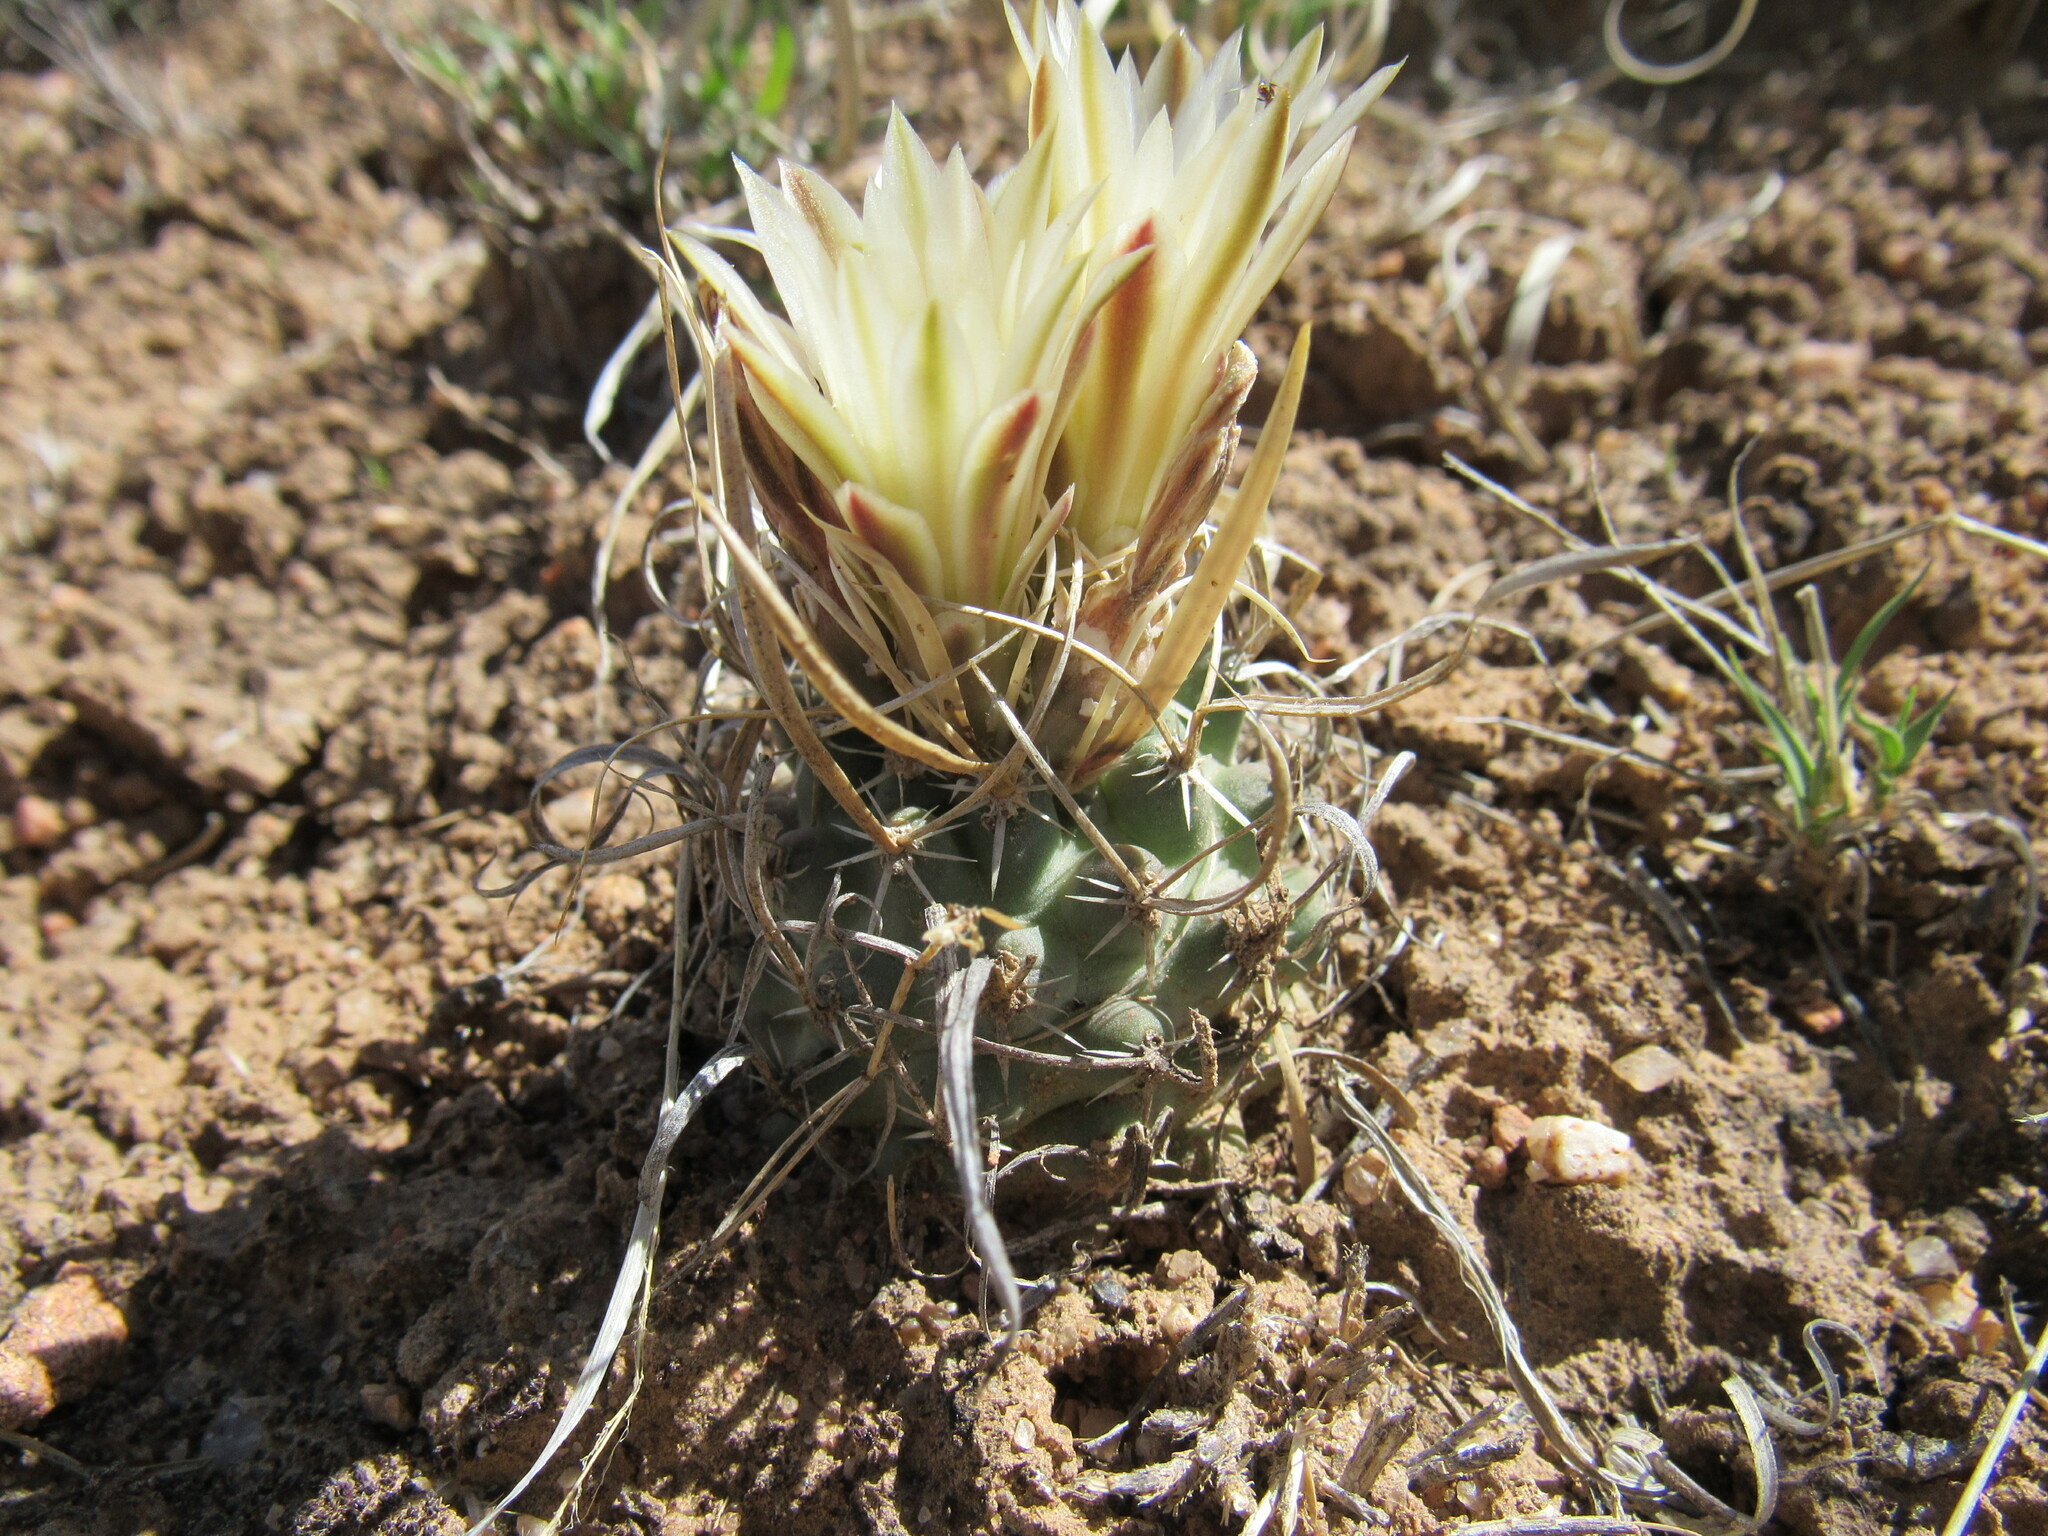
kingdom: Plantae
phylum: Tracheophyta
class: Magnoliopsida
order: Caryophyllales
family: Cactaceae
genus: Sclerocactus
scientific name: Sclerocactus papyracanthus
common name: Grama grass cactus
